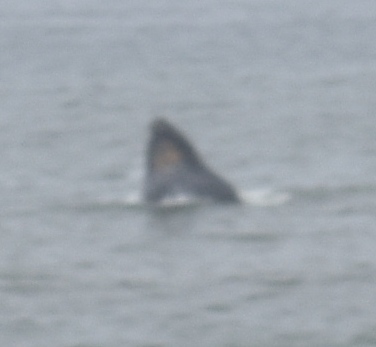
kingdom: Animalia
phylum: Chordata
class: Mammalia
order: Cetacea
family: Balaenopteridae
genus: Megaptera
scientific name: Megaptera novaeangliae
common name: Humpback whale
